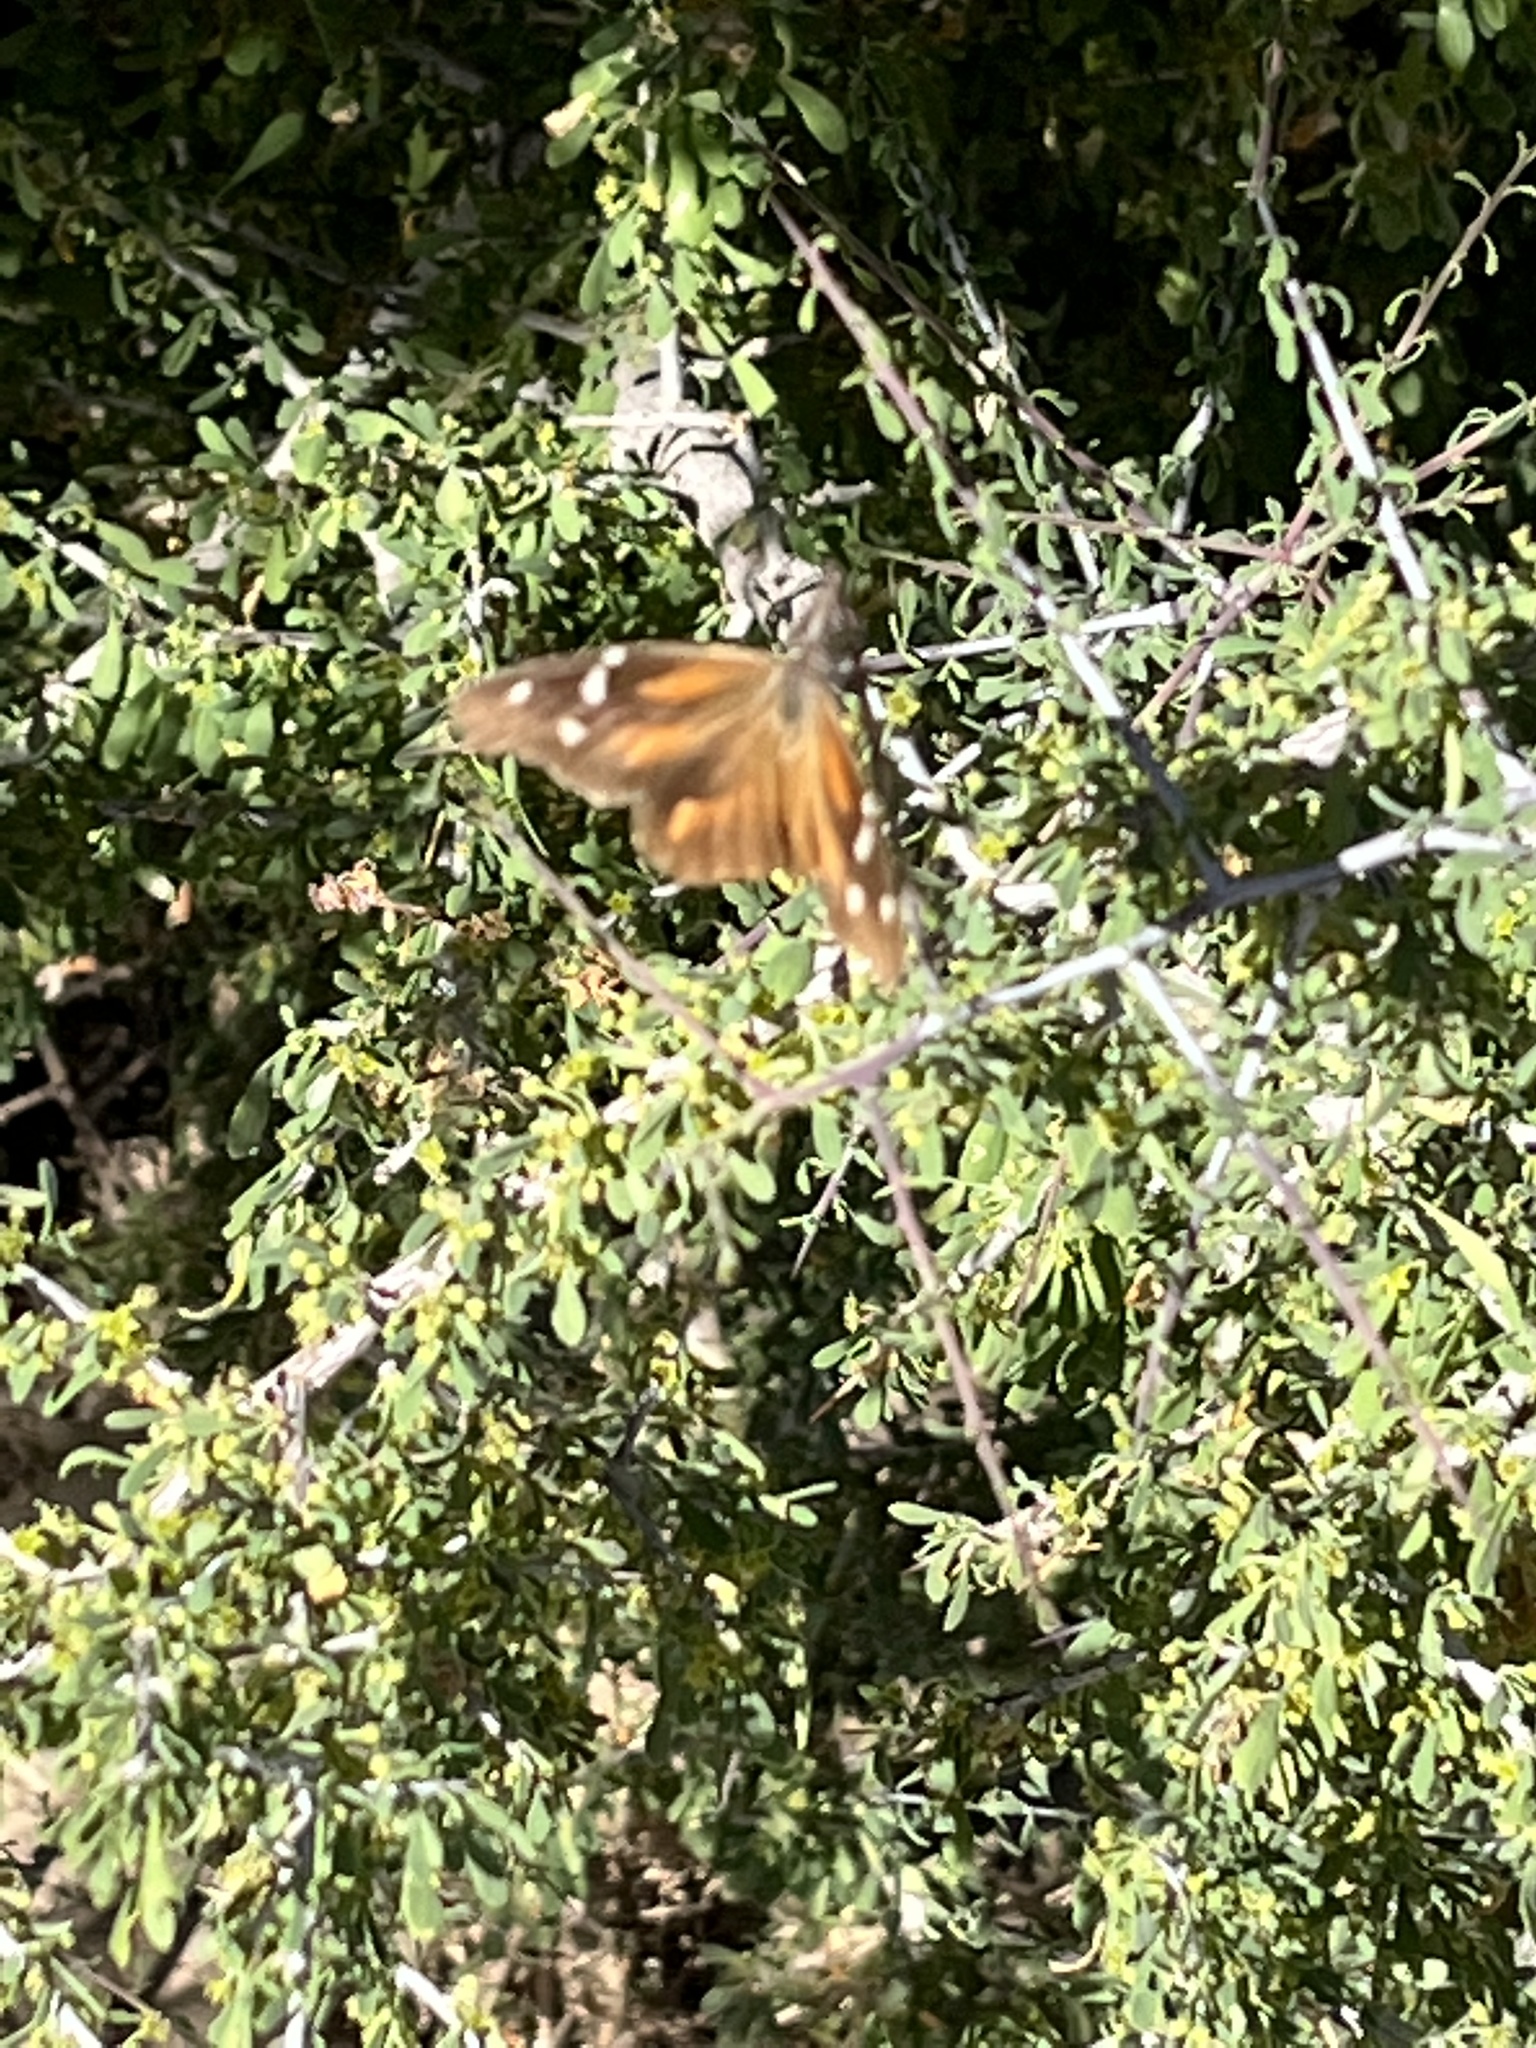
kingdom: Animalia
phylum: Arthropoda
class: Insecta
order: Lepidoptera
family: Nymphalidae
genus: Libytheana
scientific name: Libytheana carinenta
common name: American snout
